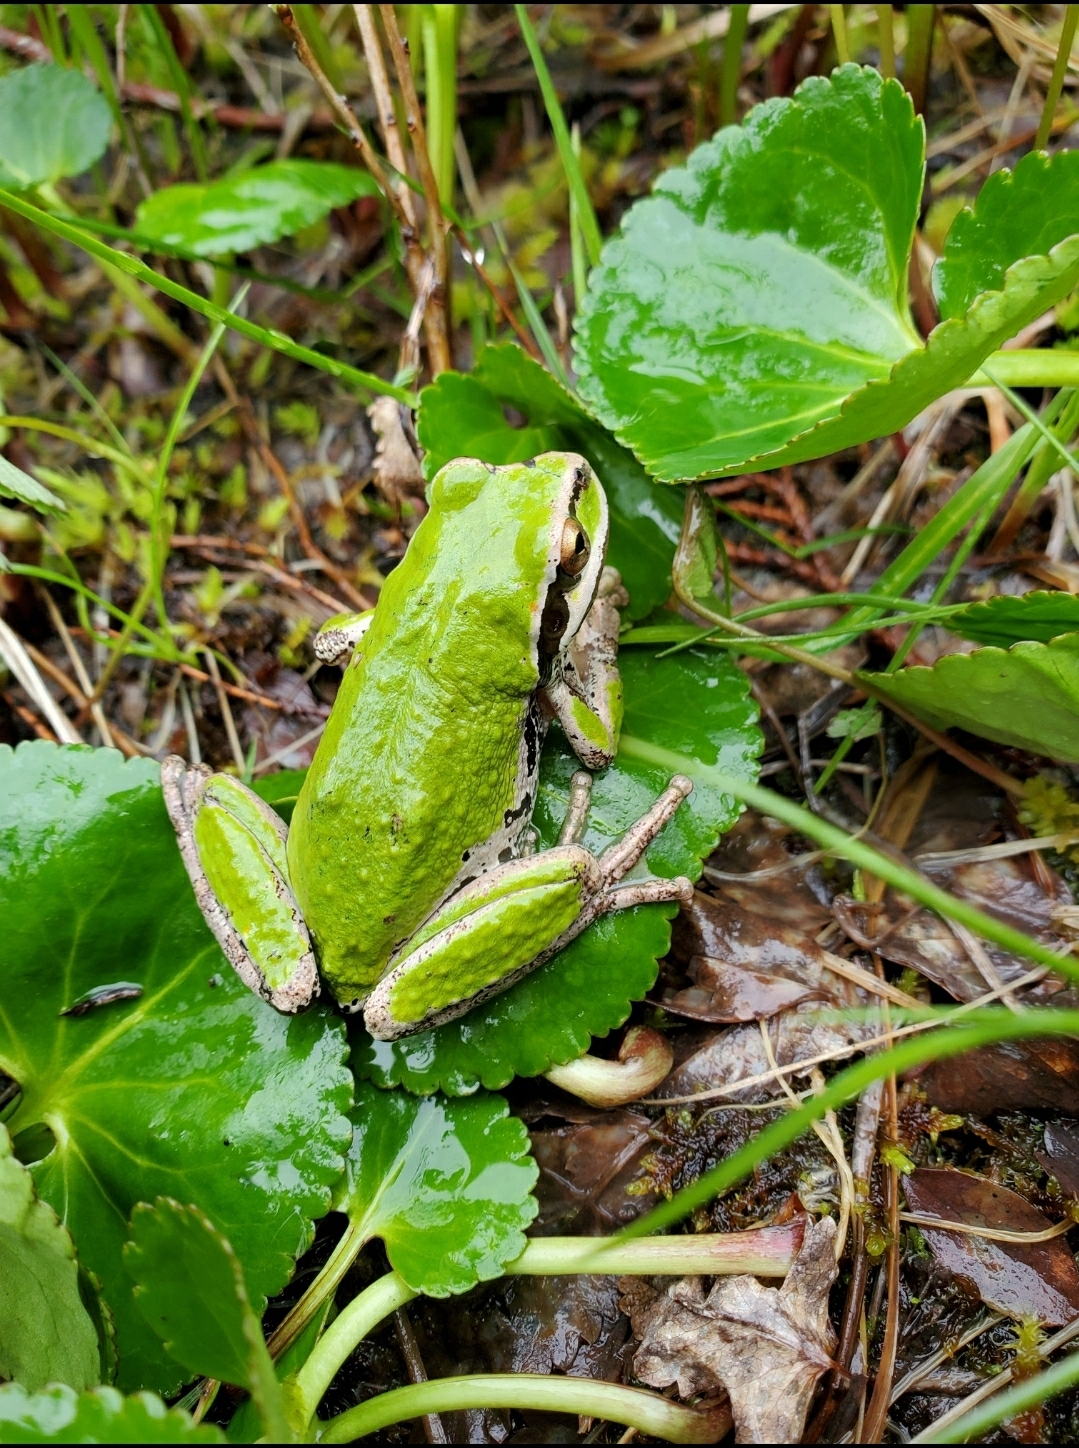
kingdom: Animalia
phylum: Chordata
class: Amphibia
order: Anura
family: Hylidae
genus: Pseudacris
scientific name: Pseudacris regilla
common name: Pacific chorus frog
